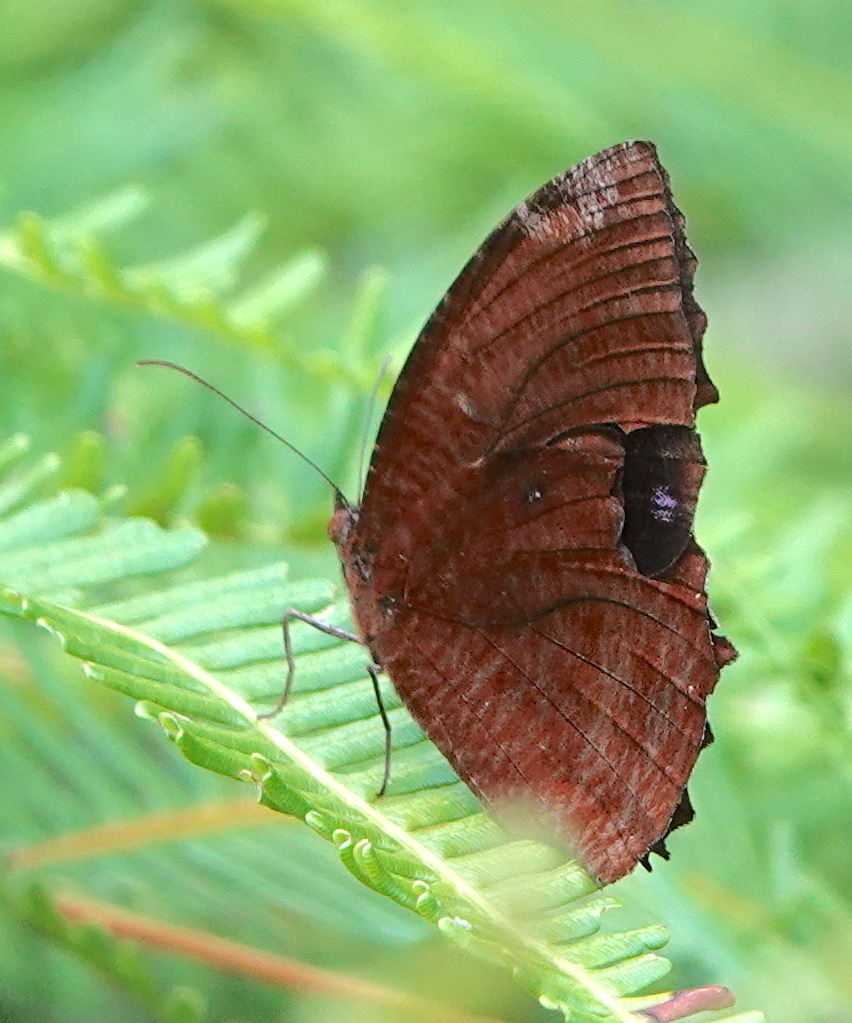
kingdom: Animalia
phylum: Arthropoda
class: Insecta
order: Lepidoptera
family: Nymphalidae
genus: Elymnias
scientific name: Elymnias hypermnestra
